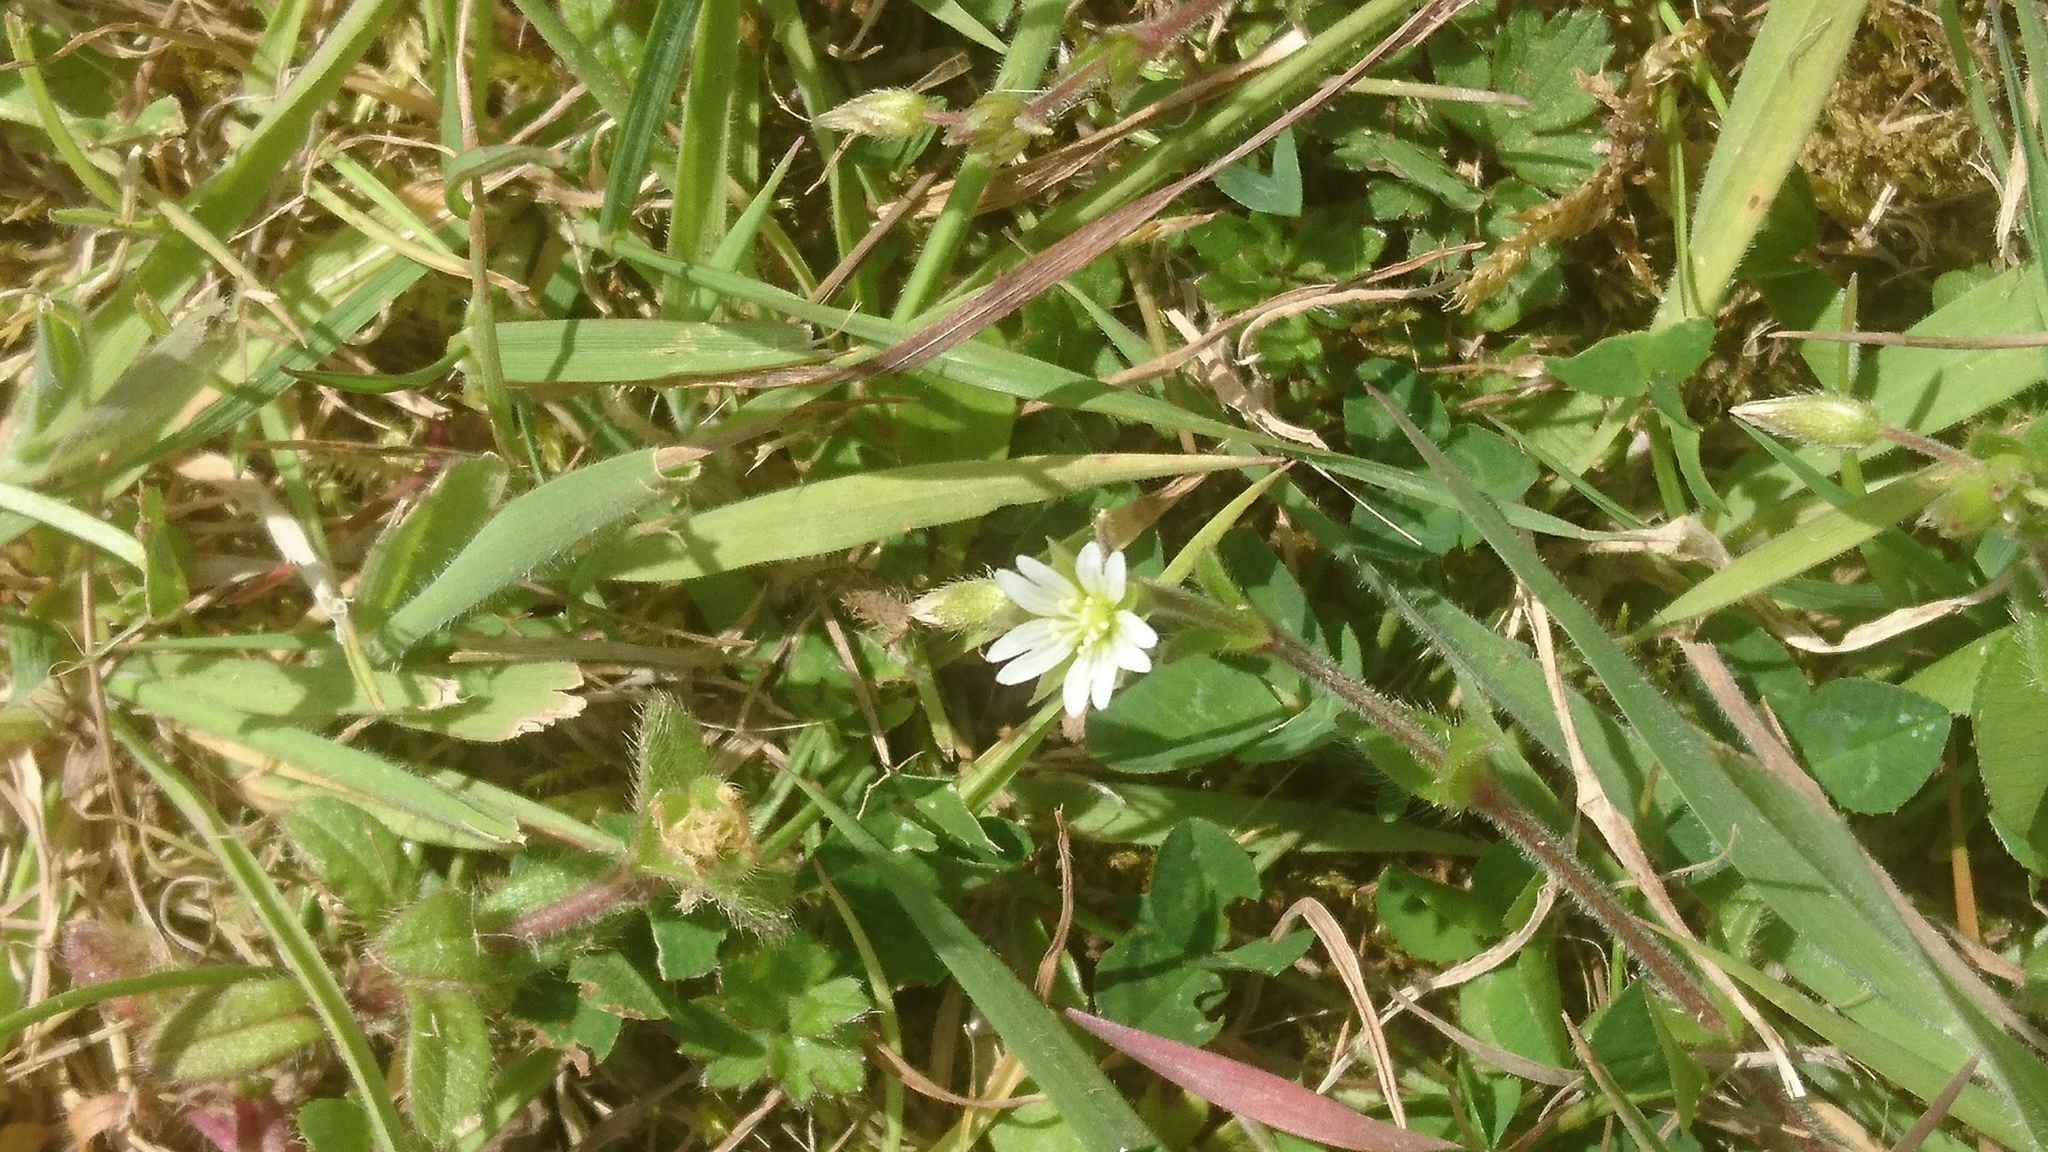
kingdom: Plantae
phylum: Tracheophyta
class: Magnoliopsida
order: Caryophyllales
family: Caryophyllaceae
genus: Cerastium
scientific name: Cerastium fontanum
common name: Common mouse-ear
